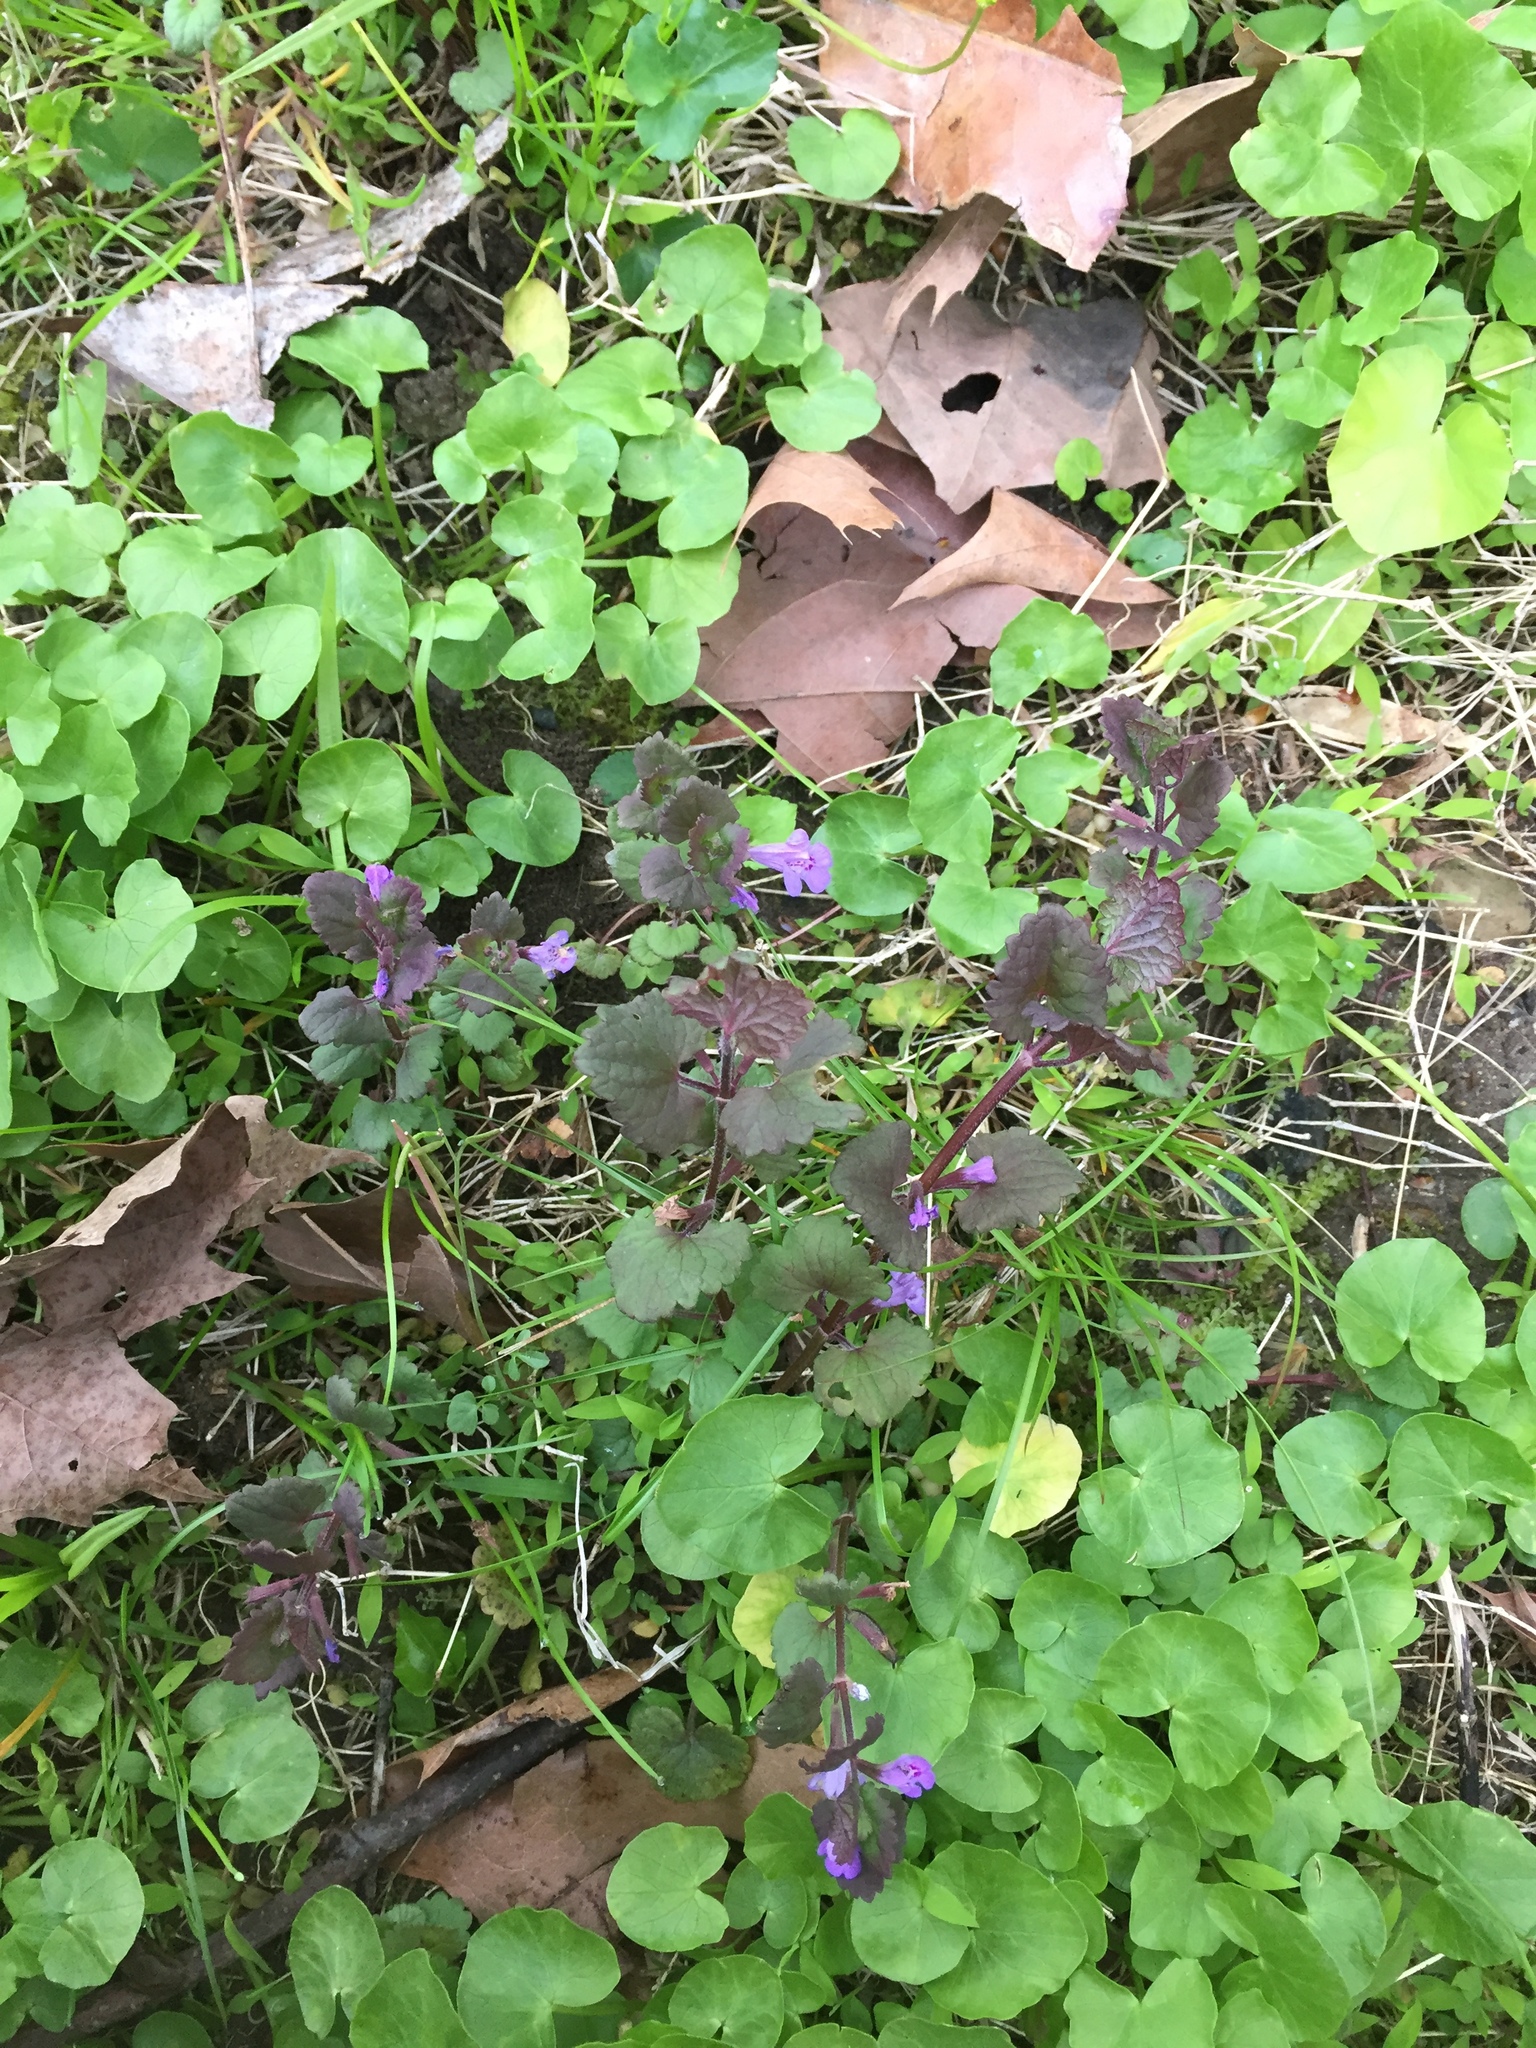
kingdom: Plantae
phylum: Tracheophyta
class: Magnoliopsida
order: Lamiales
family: Lamiaceae
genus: Glechoma
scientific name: Glechoma hederacea
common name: Ground ivy
